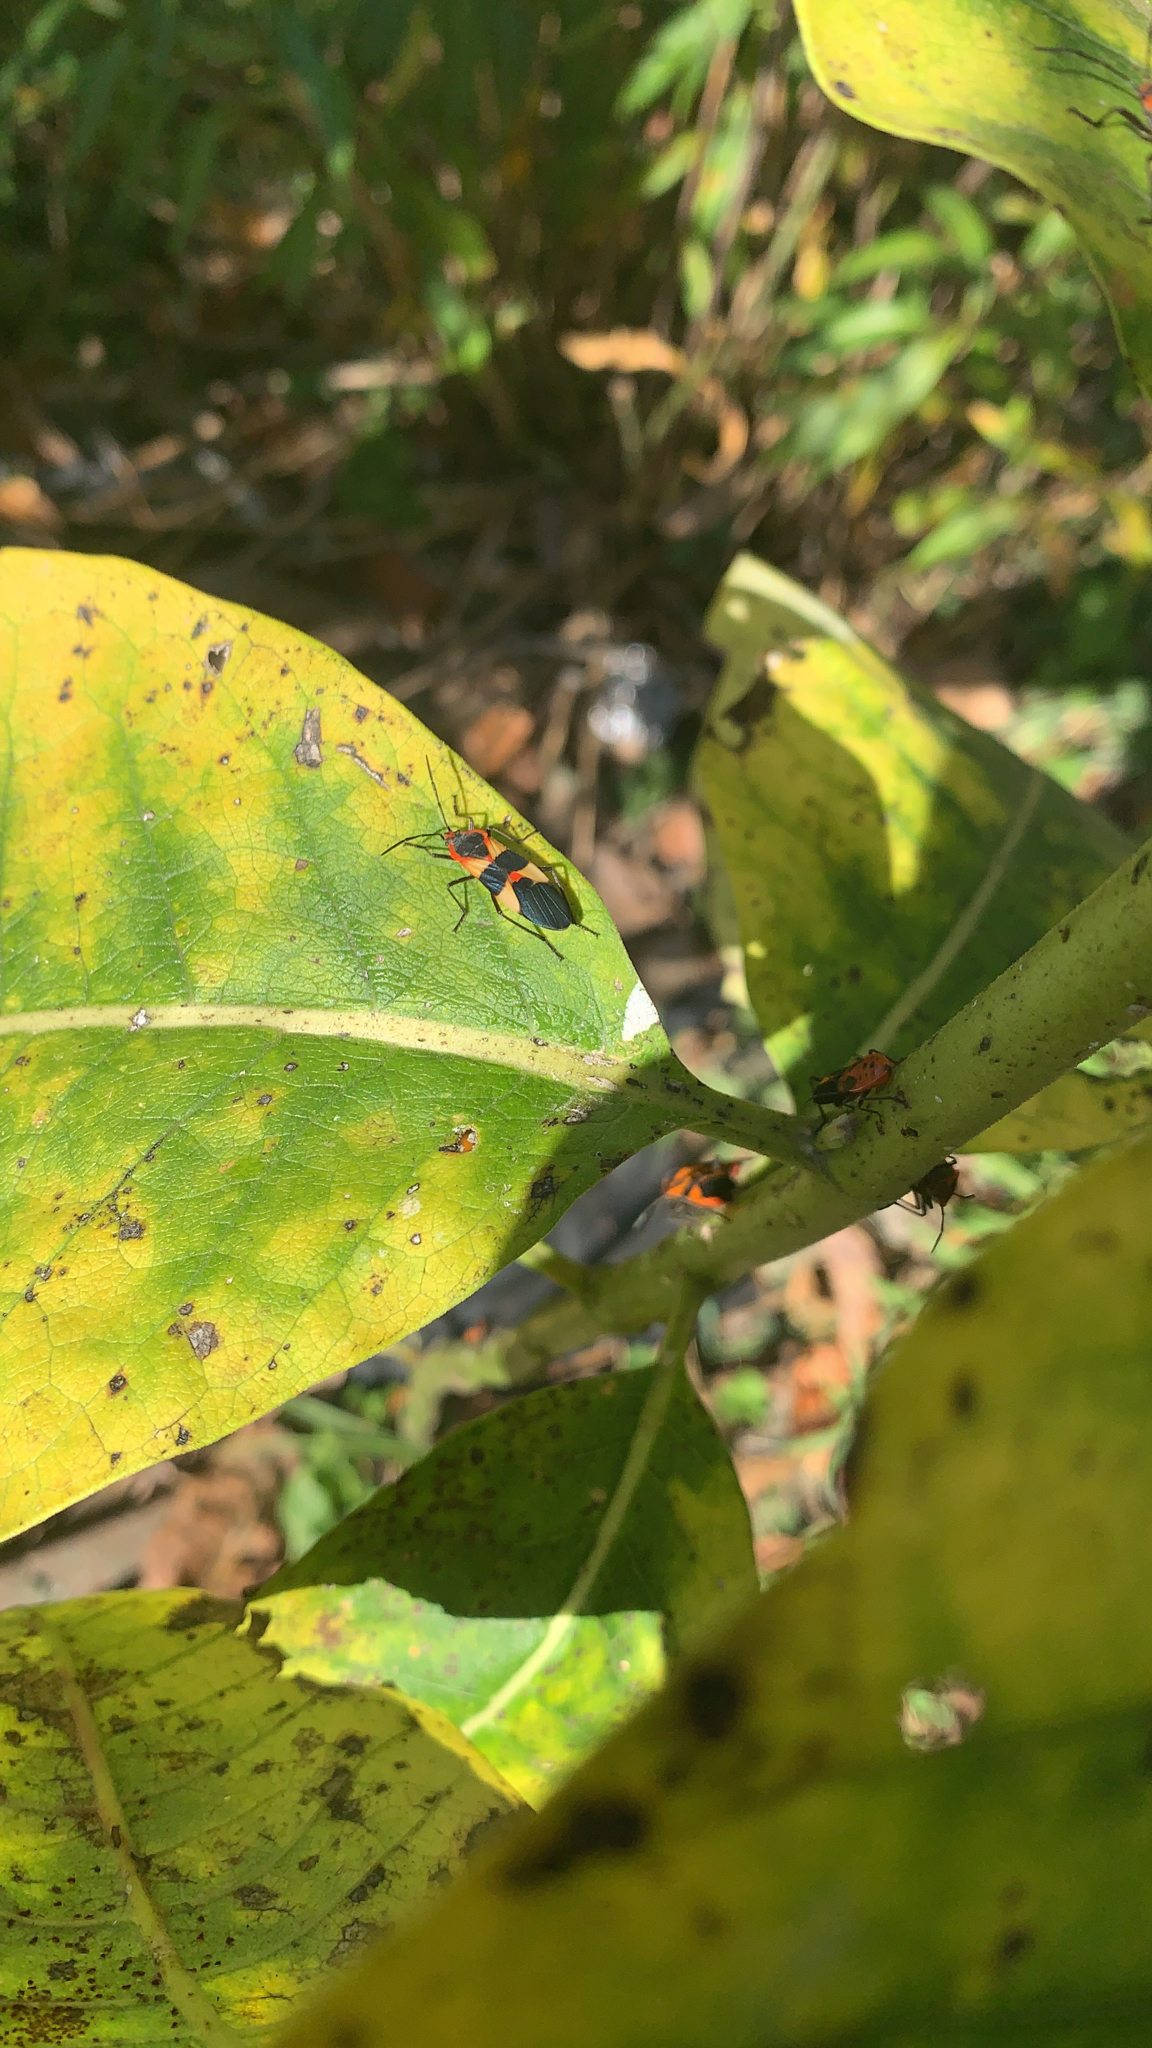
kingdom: Animalia
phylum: Arthropoda
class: Insecta
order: Hemiptera
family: Lygaeidae
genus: Oncopeltus
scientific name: Oncopeltus fasciatus
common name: Large milkweed bug
